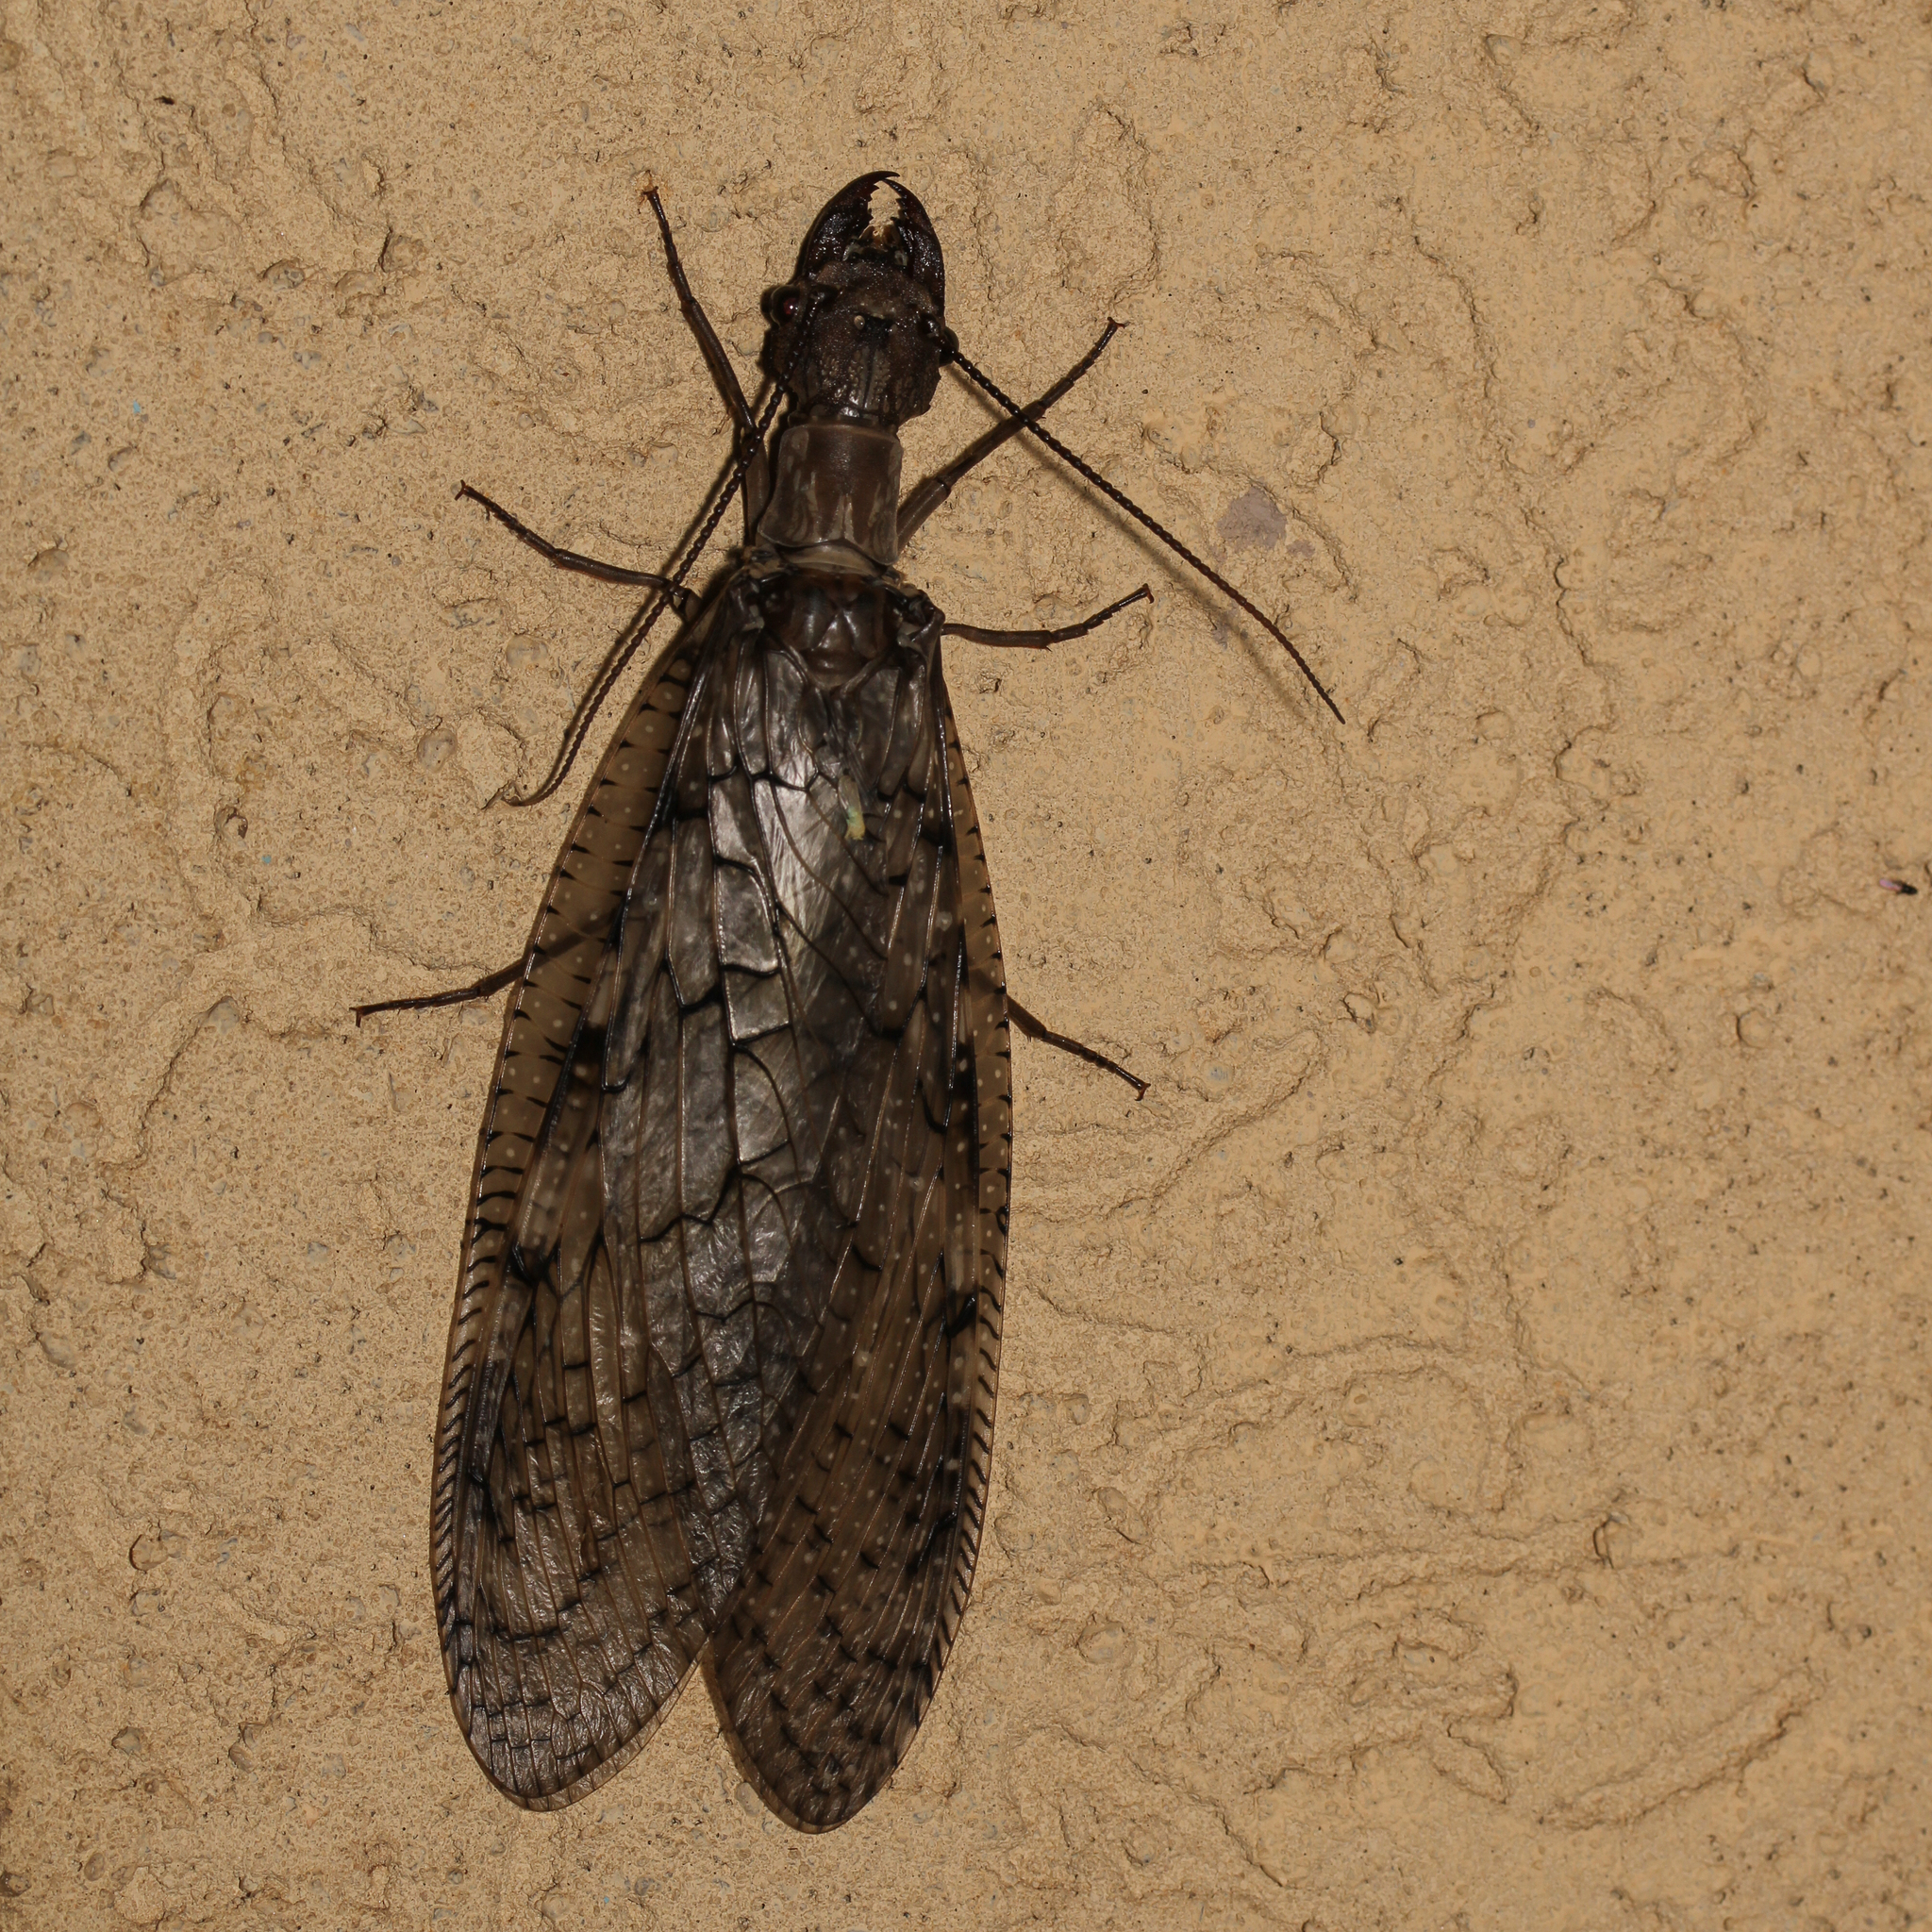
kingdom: Animalia
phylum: Arthropoda
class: Insecta
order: Megaloptera
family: Corydalidae
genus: Corydalus
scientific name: Corydalus cornutus
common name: Dobsonfly
